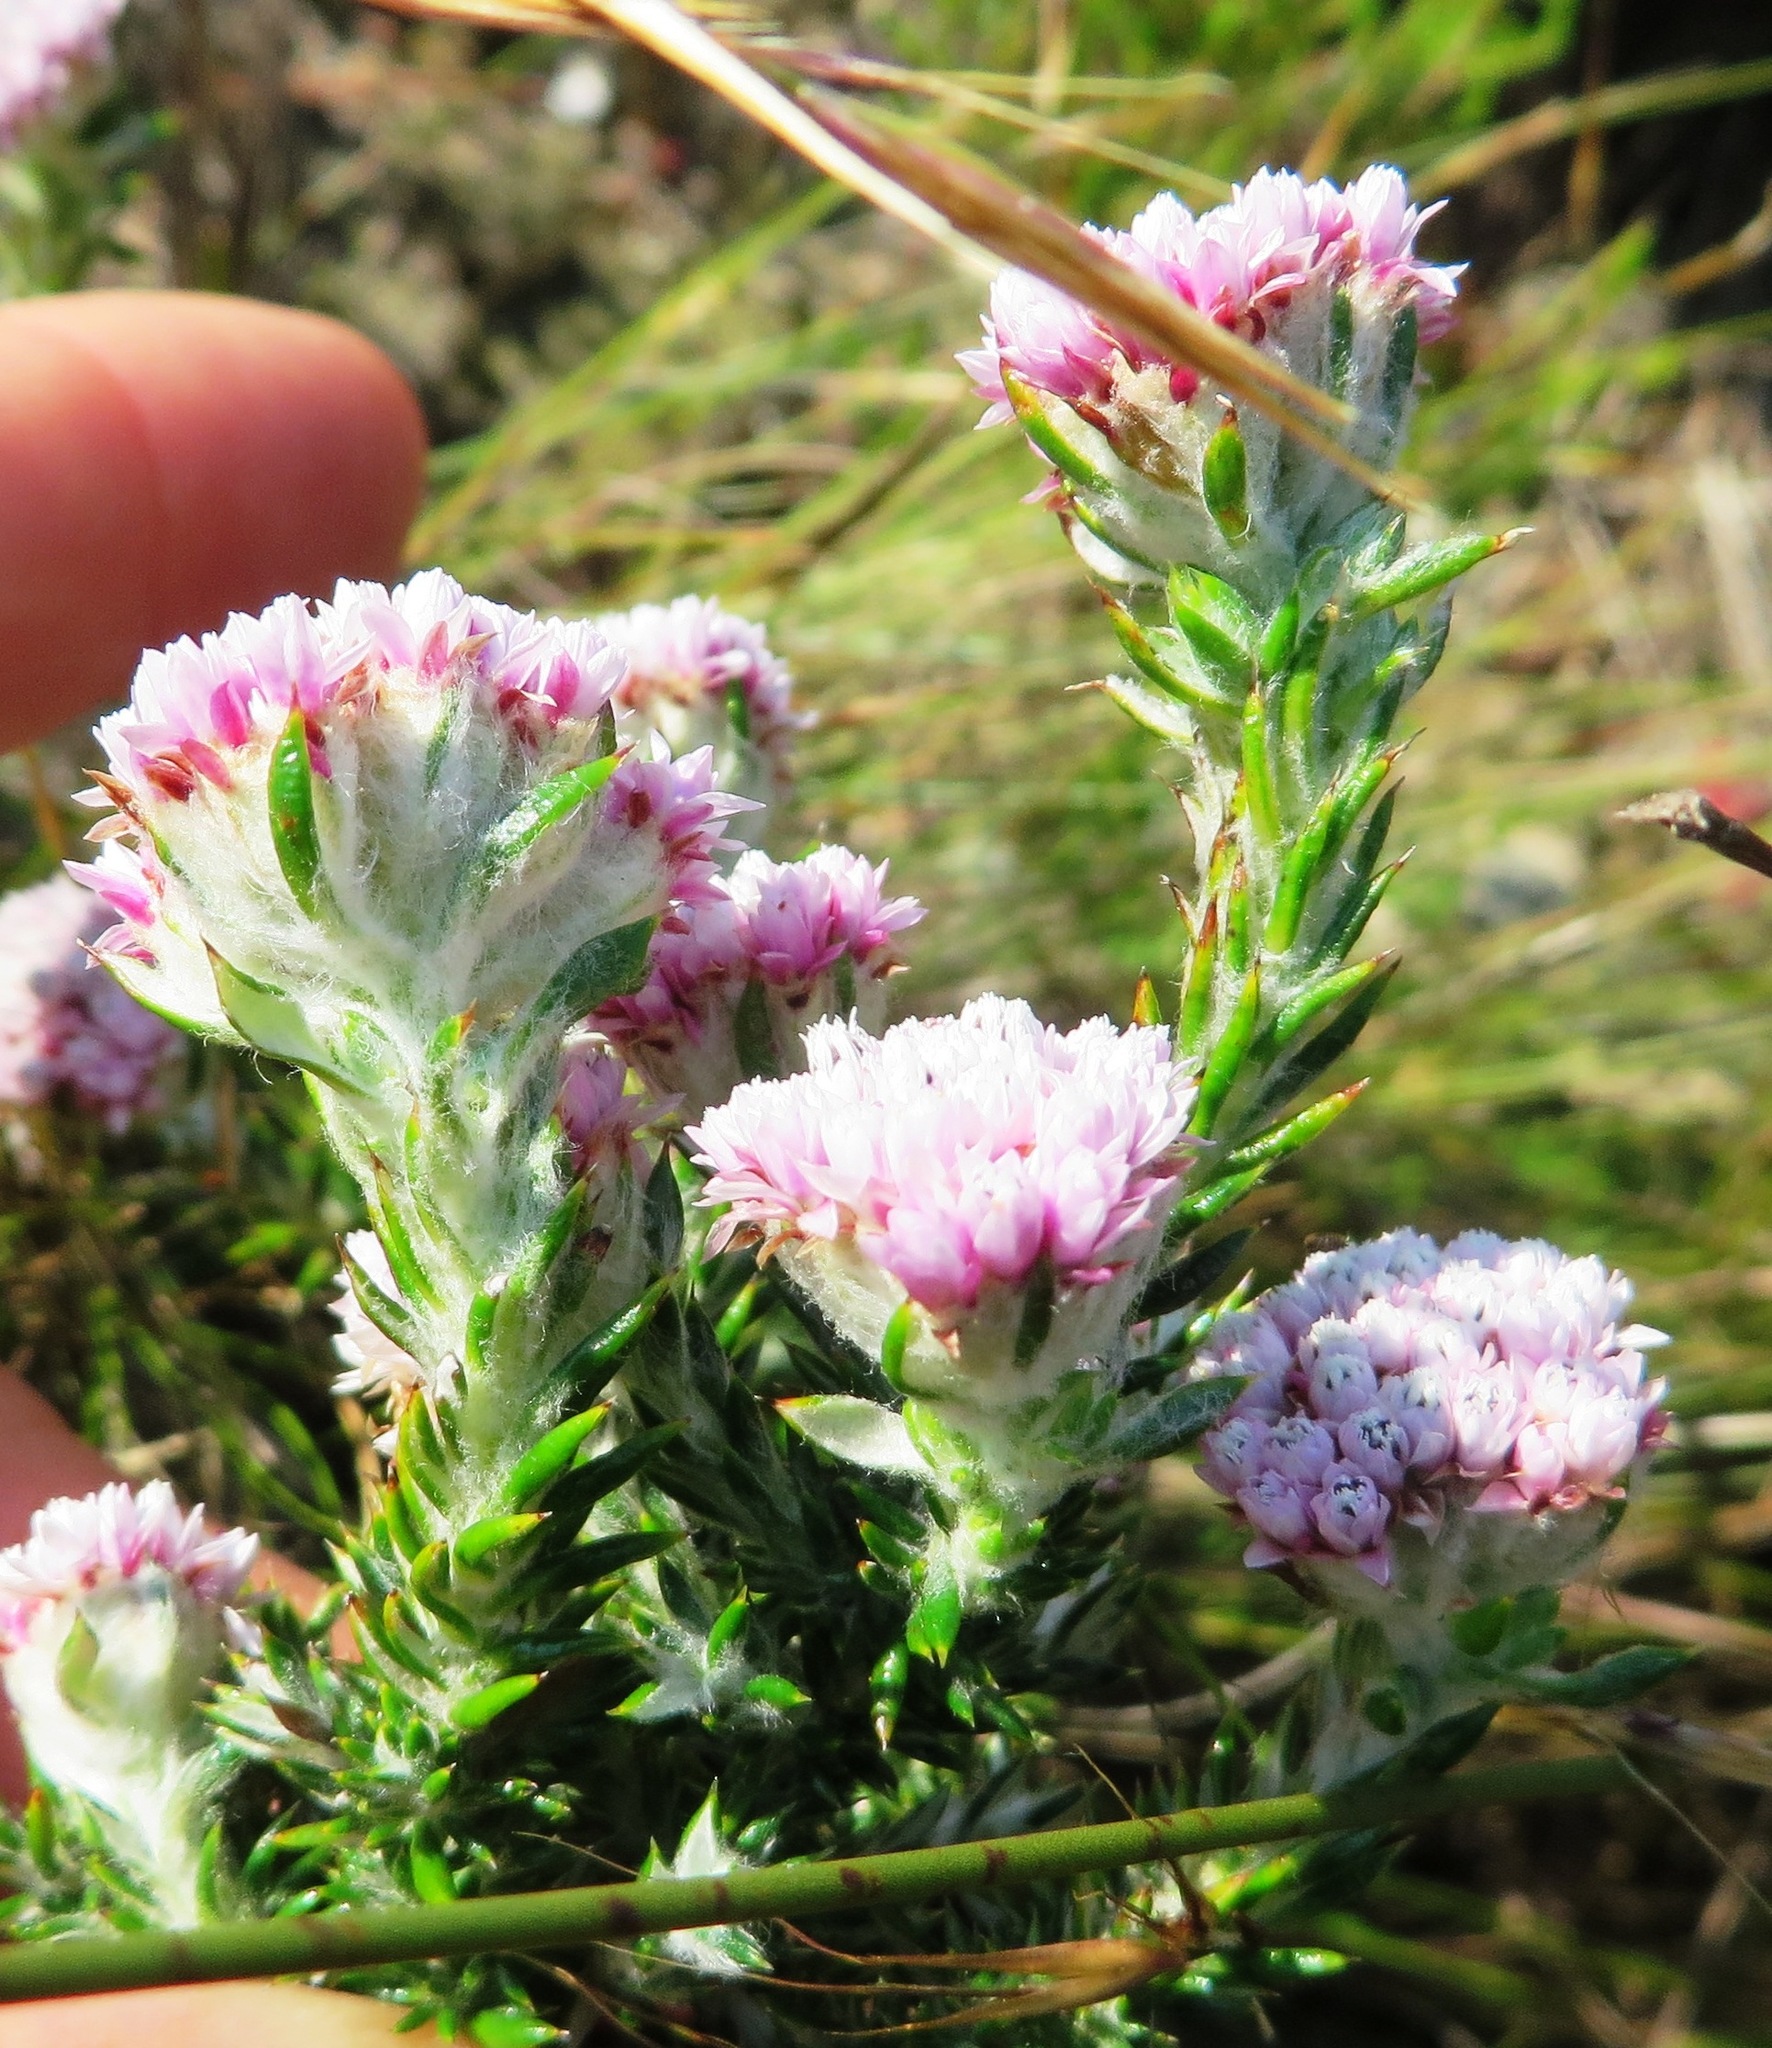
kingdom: Plantae
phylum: Tracheophyta
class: Magnoliopsida
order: Asterales
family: Asteraceae
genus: Metalasia
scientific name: Metalasia lichtensteinii
